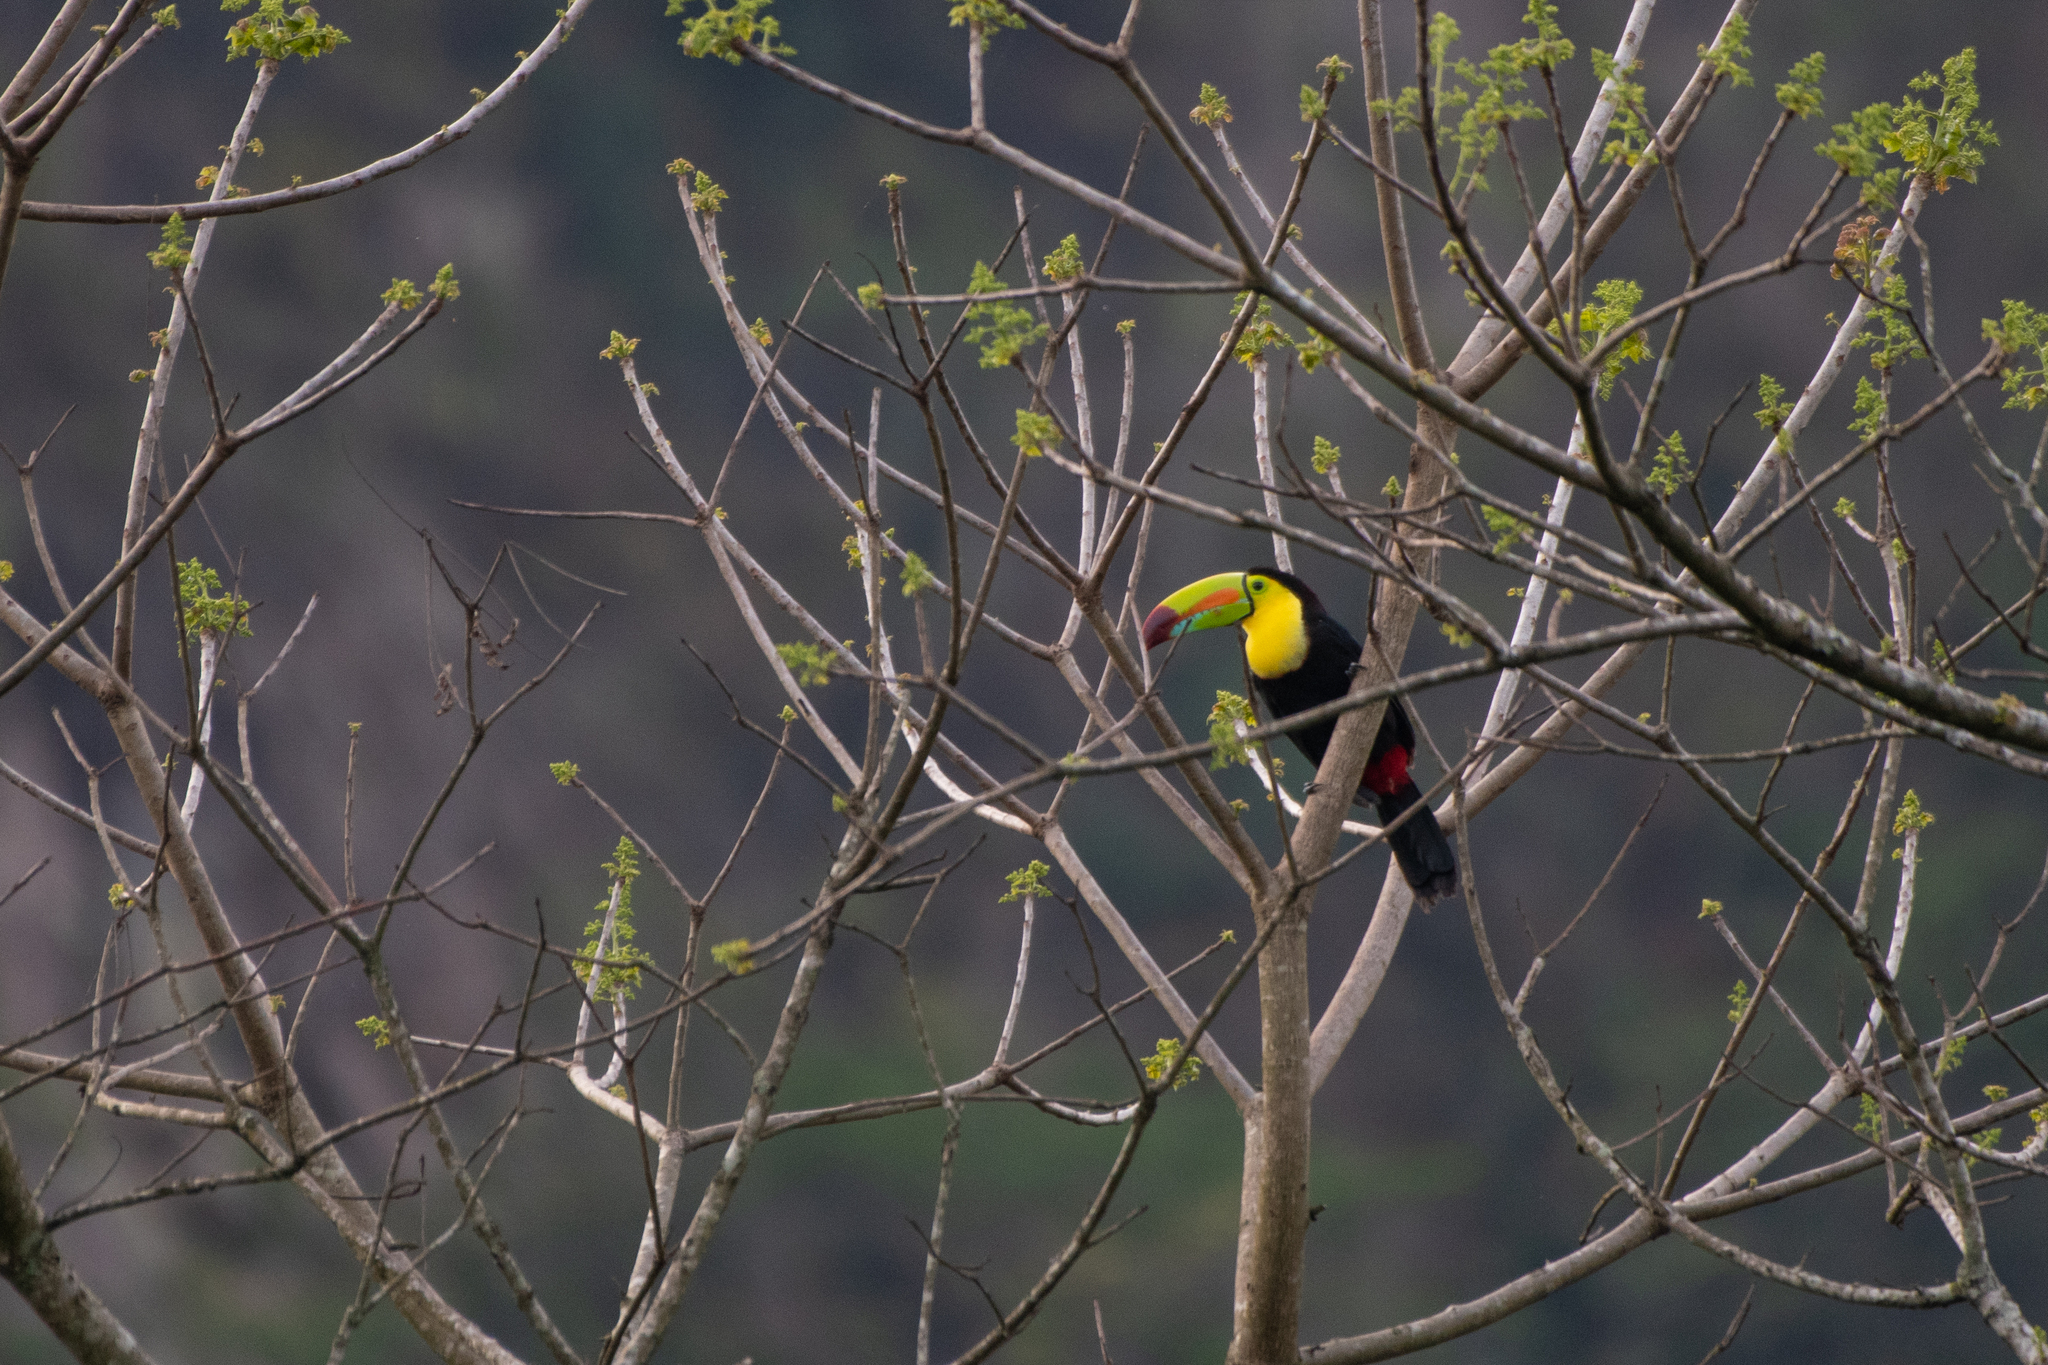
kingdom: Animalia
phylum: Chordata
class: Aves
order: Piciformes
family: Ramphastidae
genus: Ramphastos
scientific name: Ramphastos sulfuratus
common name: Keel-billed toucan
